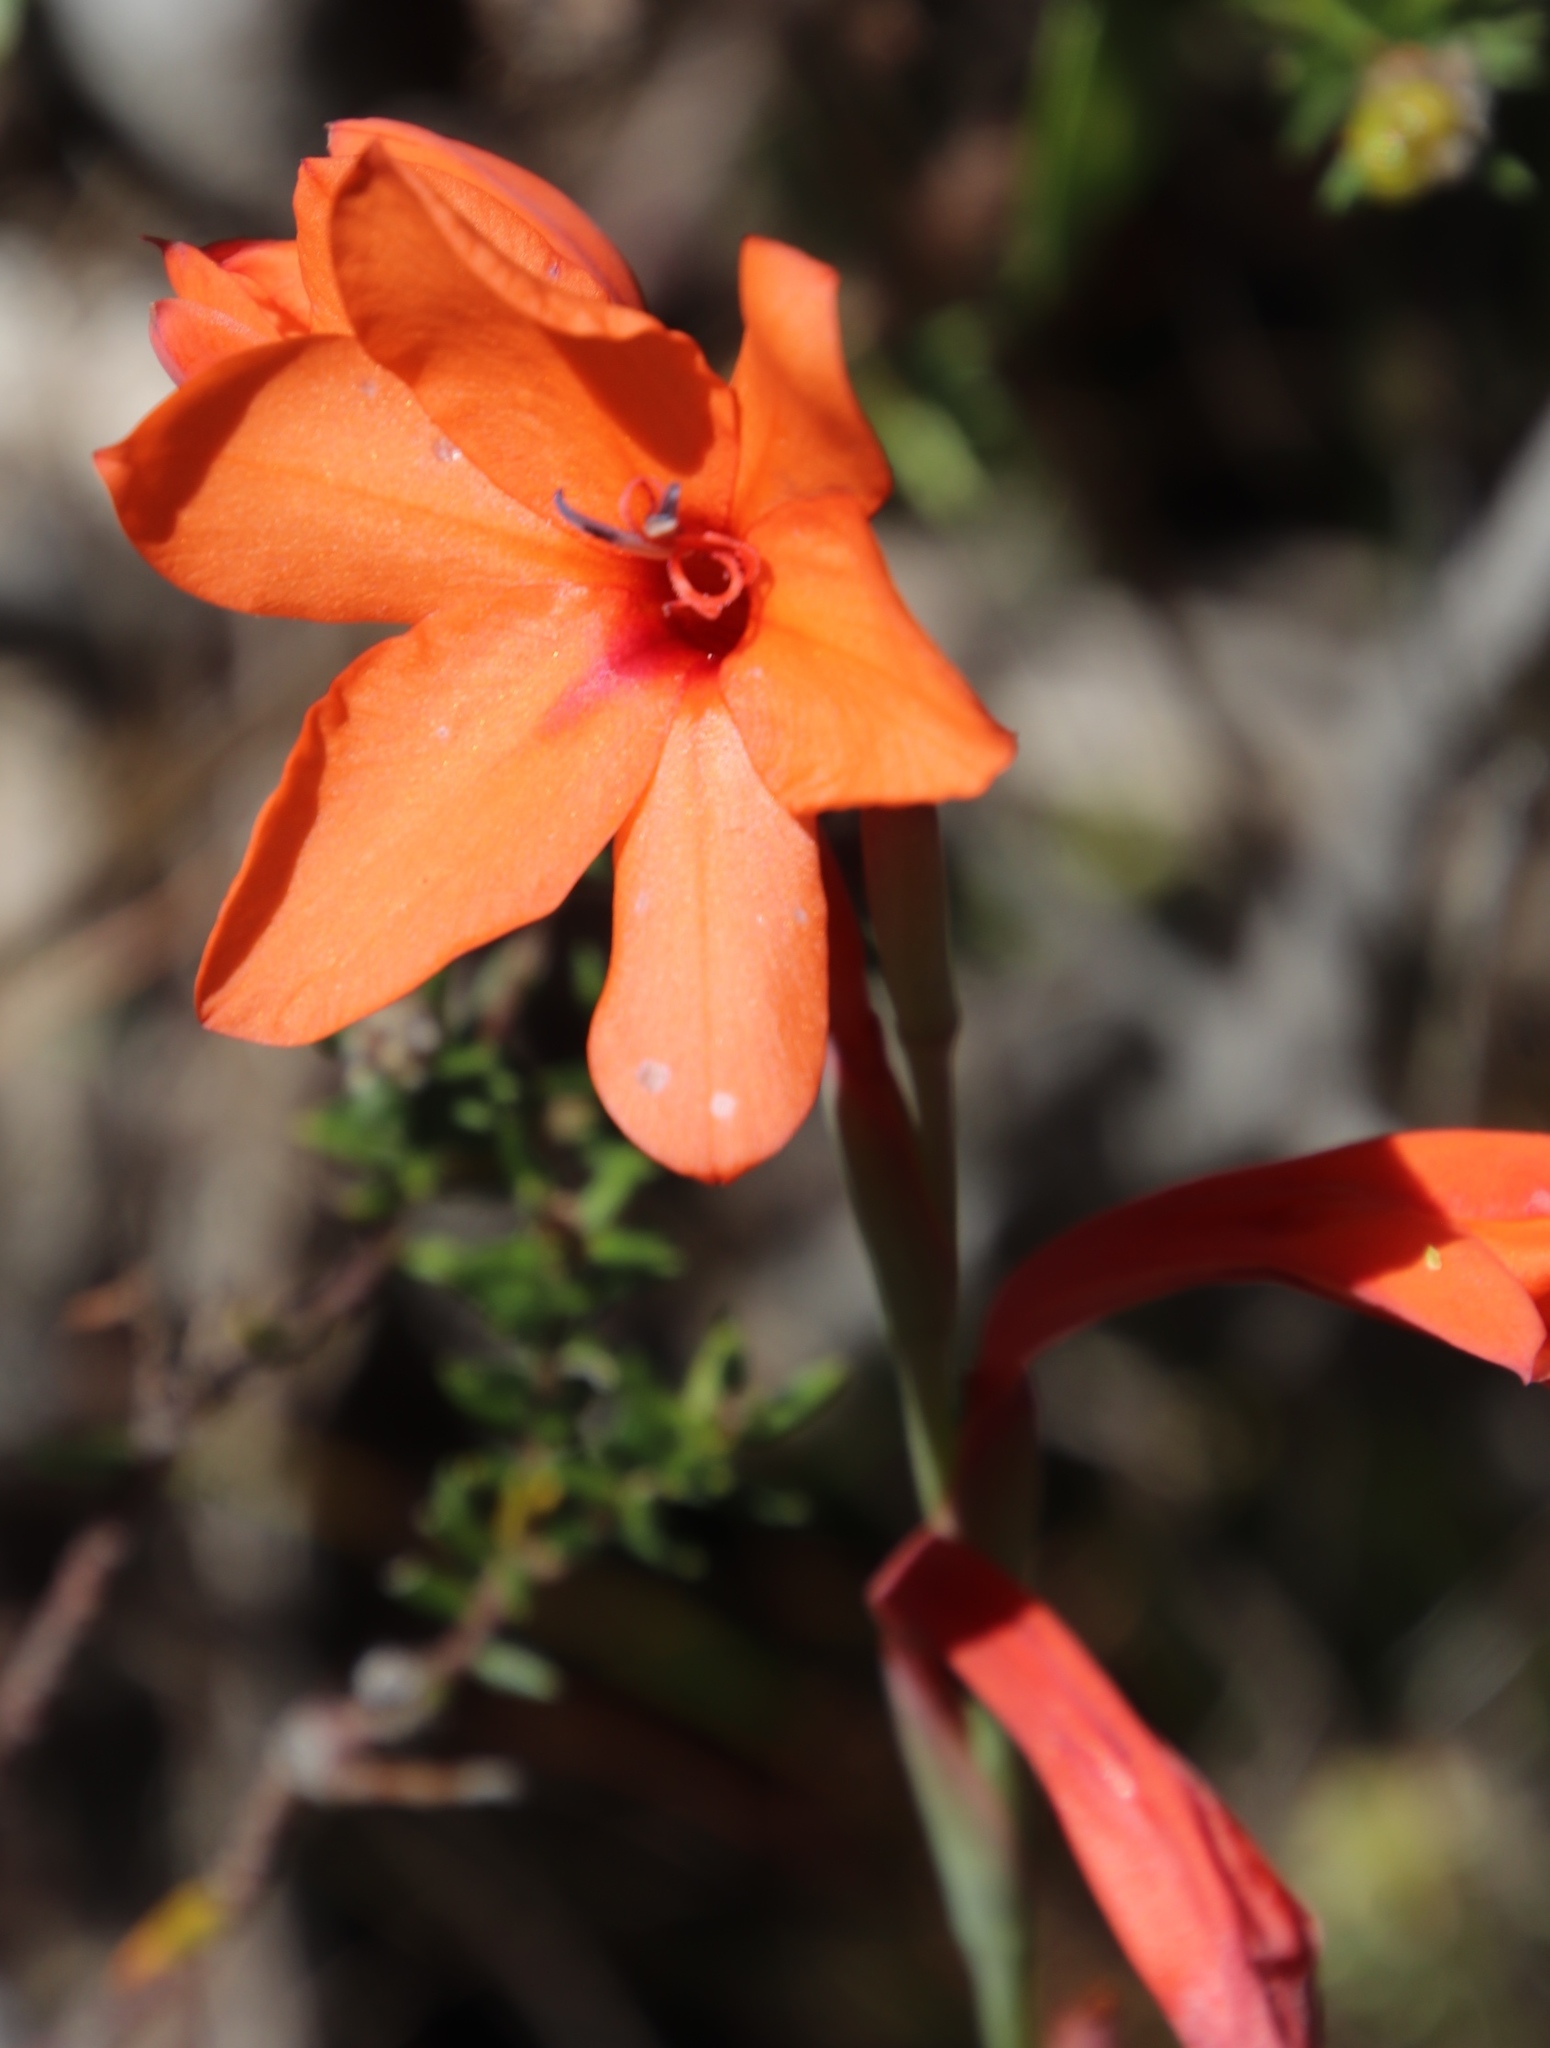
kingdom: Plantae
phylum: Tracheophyta
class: Liliopsida
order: Asparagales
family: Iridaceae
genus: Watsonia
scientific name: Watsonia stenosiphon
